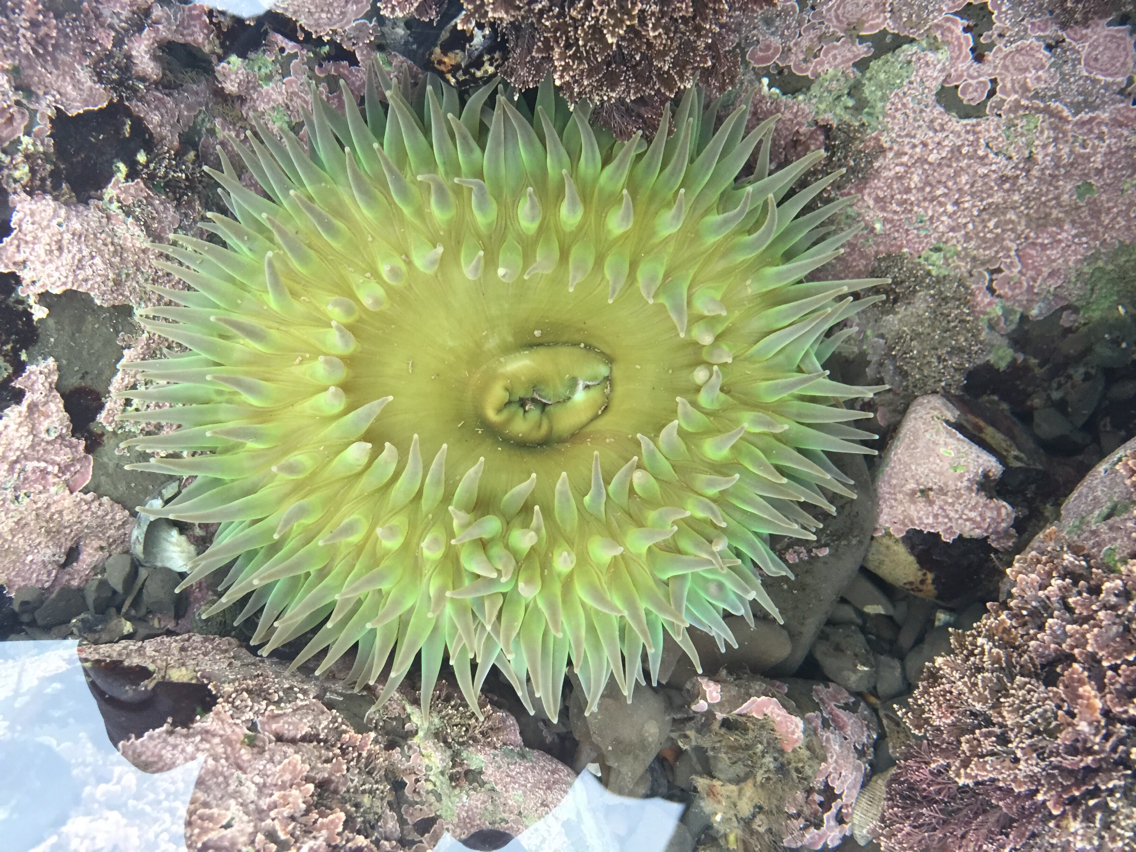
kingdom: Animalia
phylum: Cnidaria
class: Anthozoa
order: Actiniaria
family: Actiniidae
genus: Anthopleura
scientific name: Anthopleura xanthogrammica
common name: Giant green anemone
